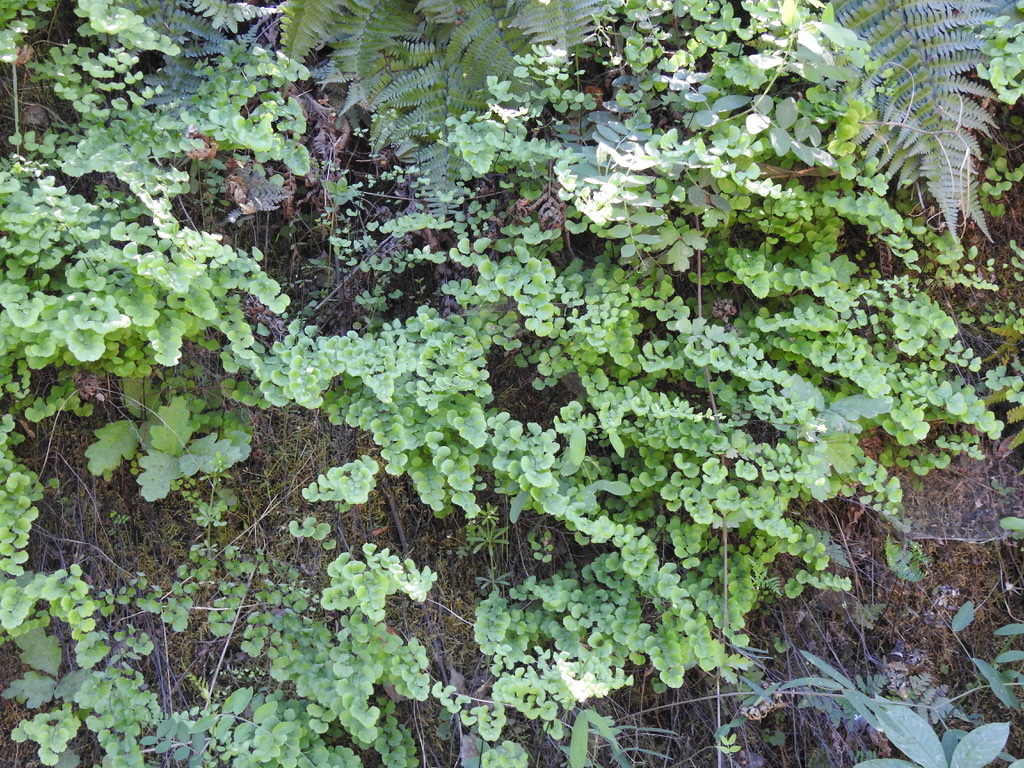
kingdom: Plantae
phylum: Tracheophyta
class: Polypodiopsida
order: Polypodiales
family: Pteridaceae
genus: Adiantum
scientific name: Adiantum jordanii
